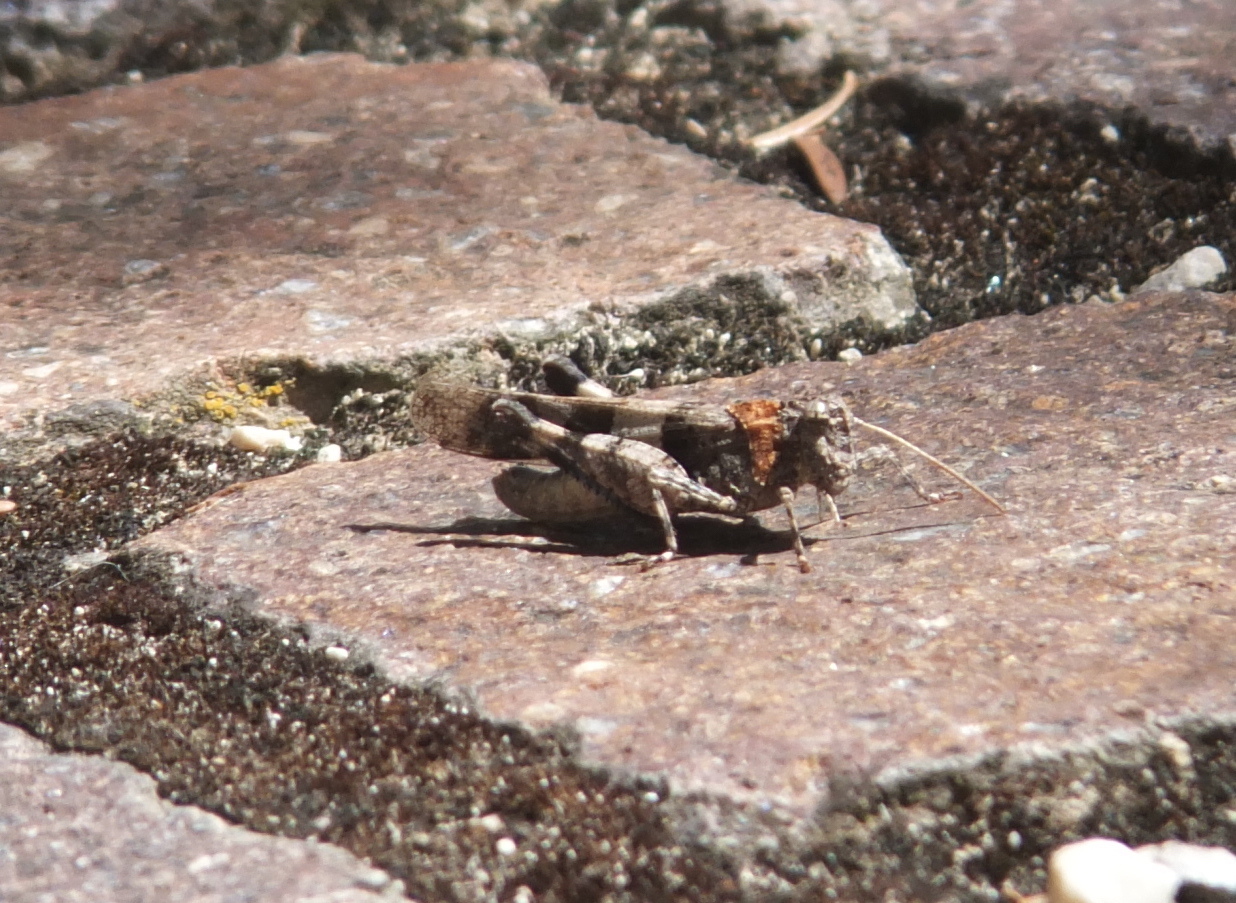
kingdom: Animalia
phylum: Arthropoda
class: Insecta
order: Orthoptera
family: Acrididae
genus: Oedipoda
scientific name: Oedipoda caerulescens
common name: Blue-winged grasshopper
